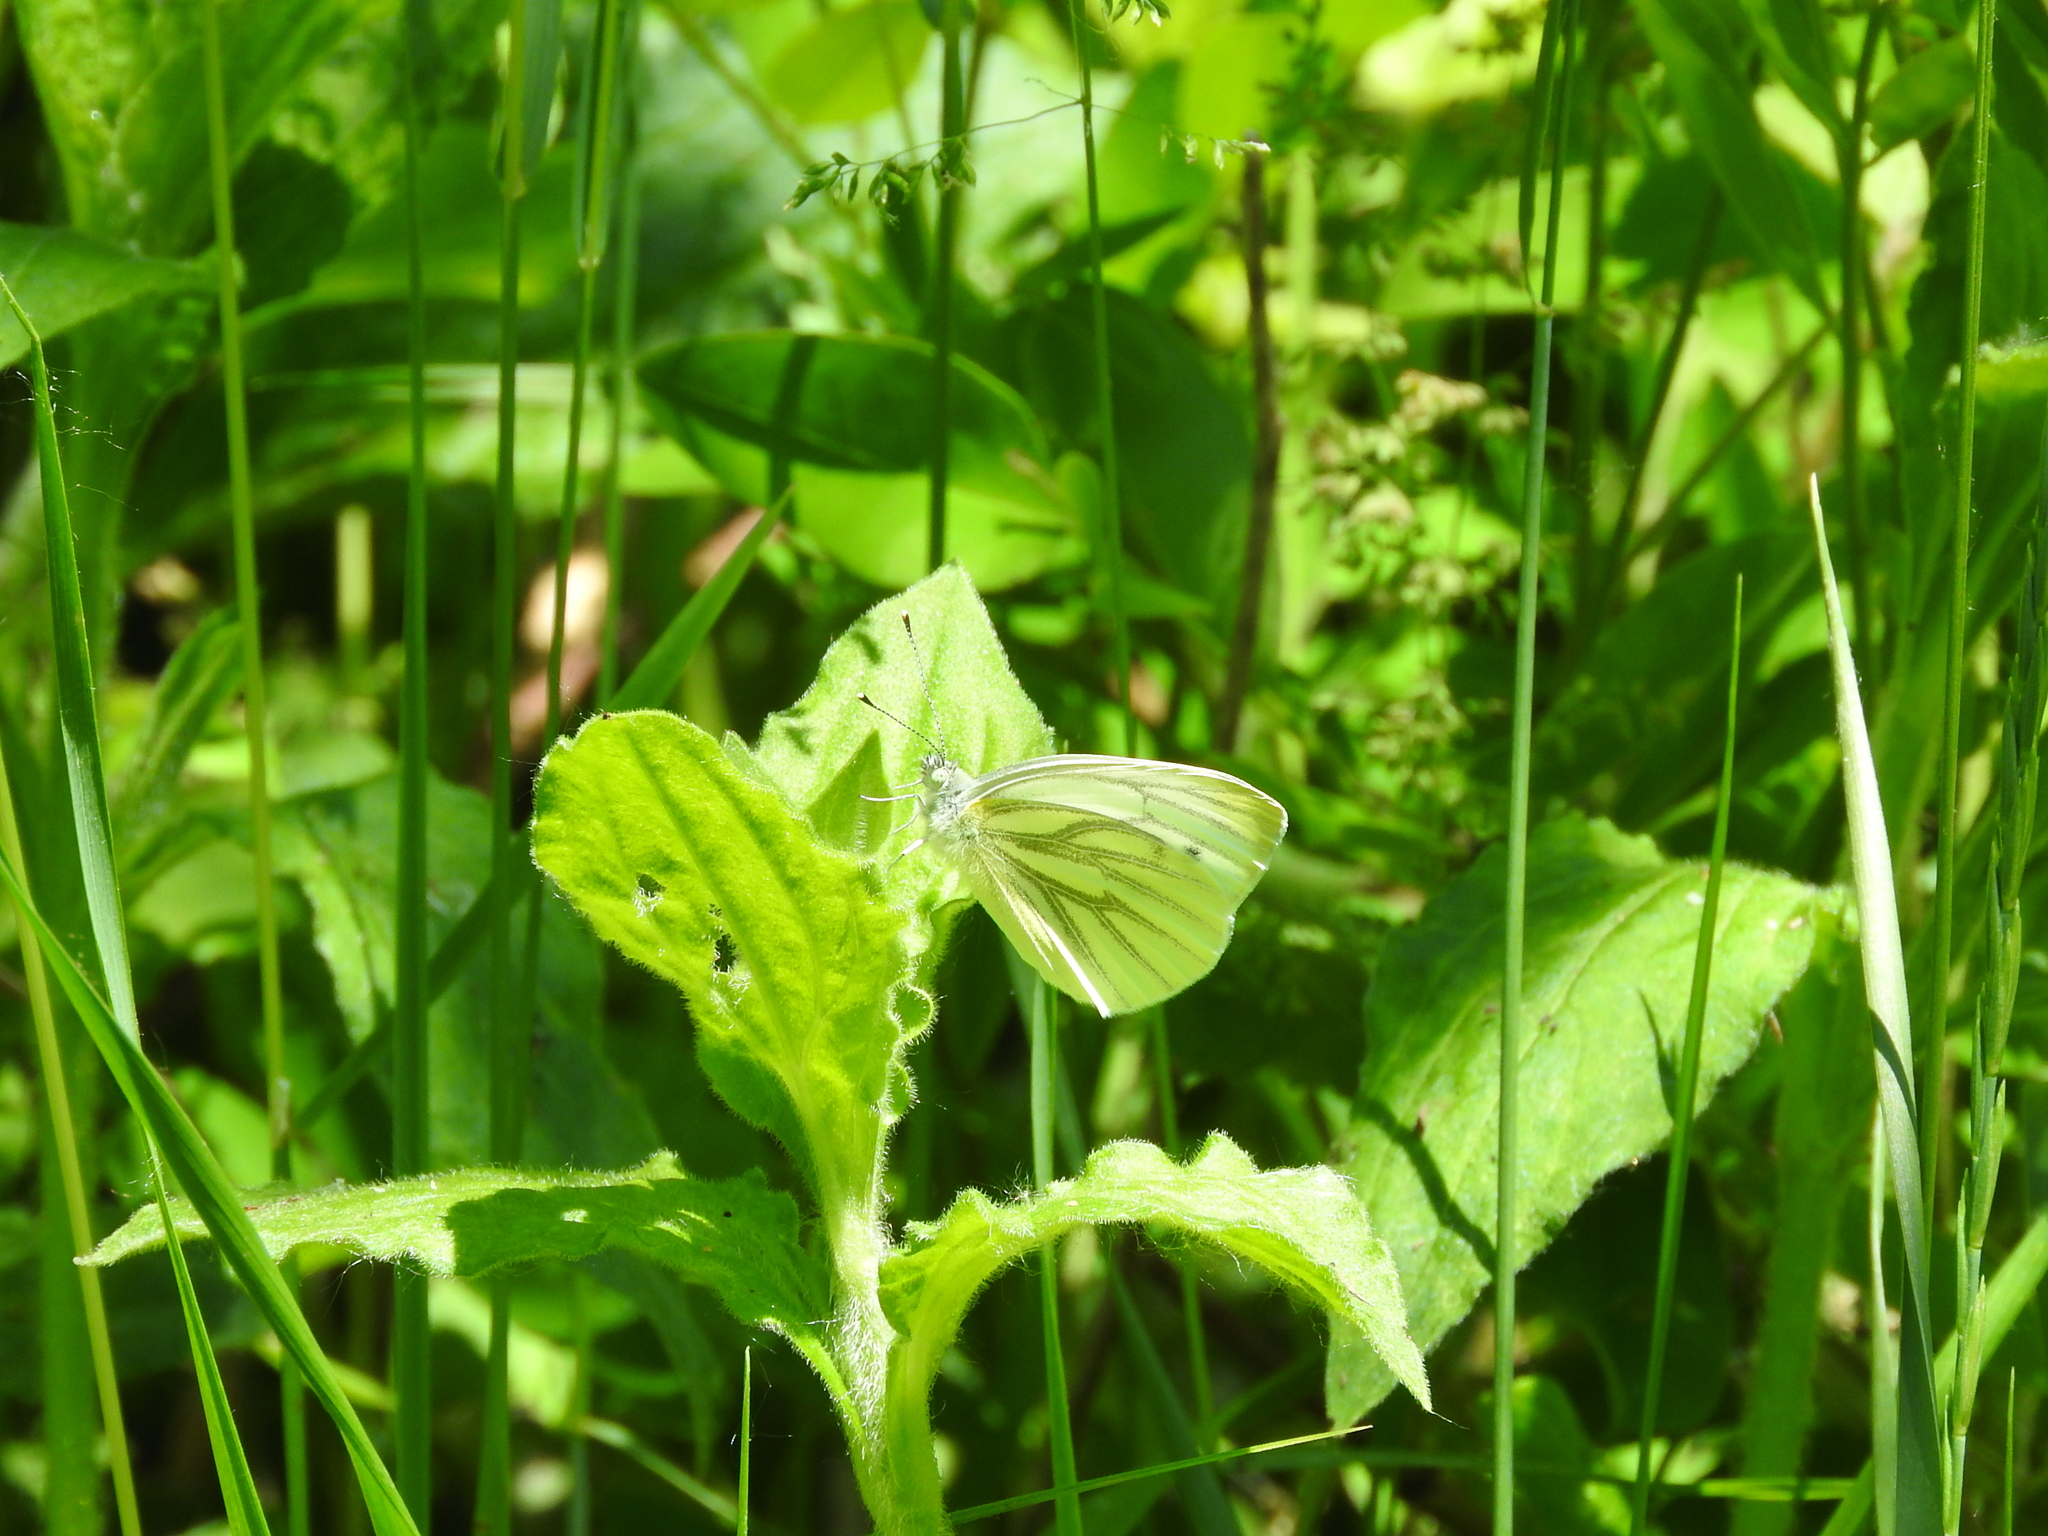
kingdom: Animalia
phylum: Arthropoda
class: Insecta
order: Lepidoptera
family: Pieridae
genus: Pieris
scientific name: Pieris napi
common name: Green-veined white
